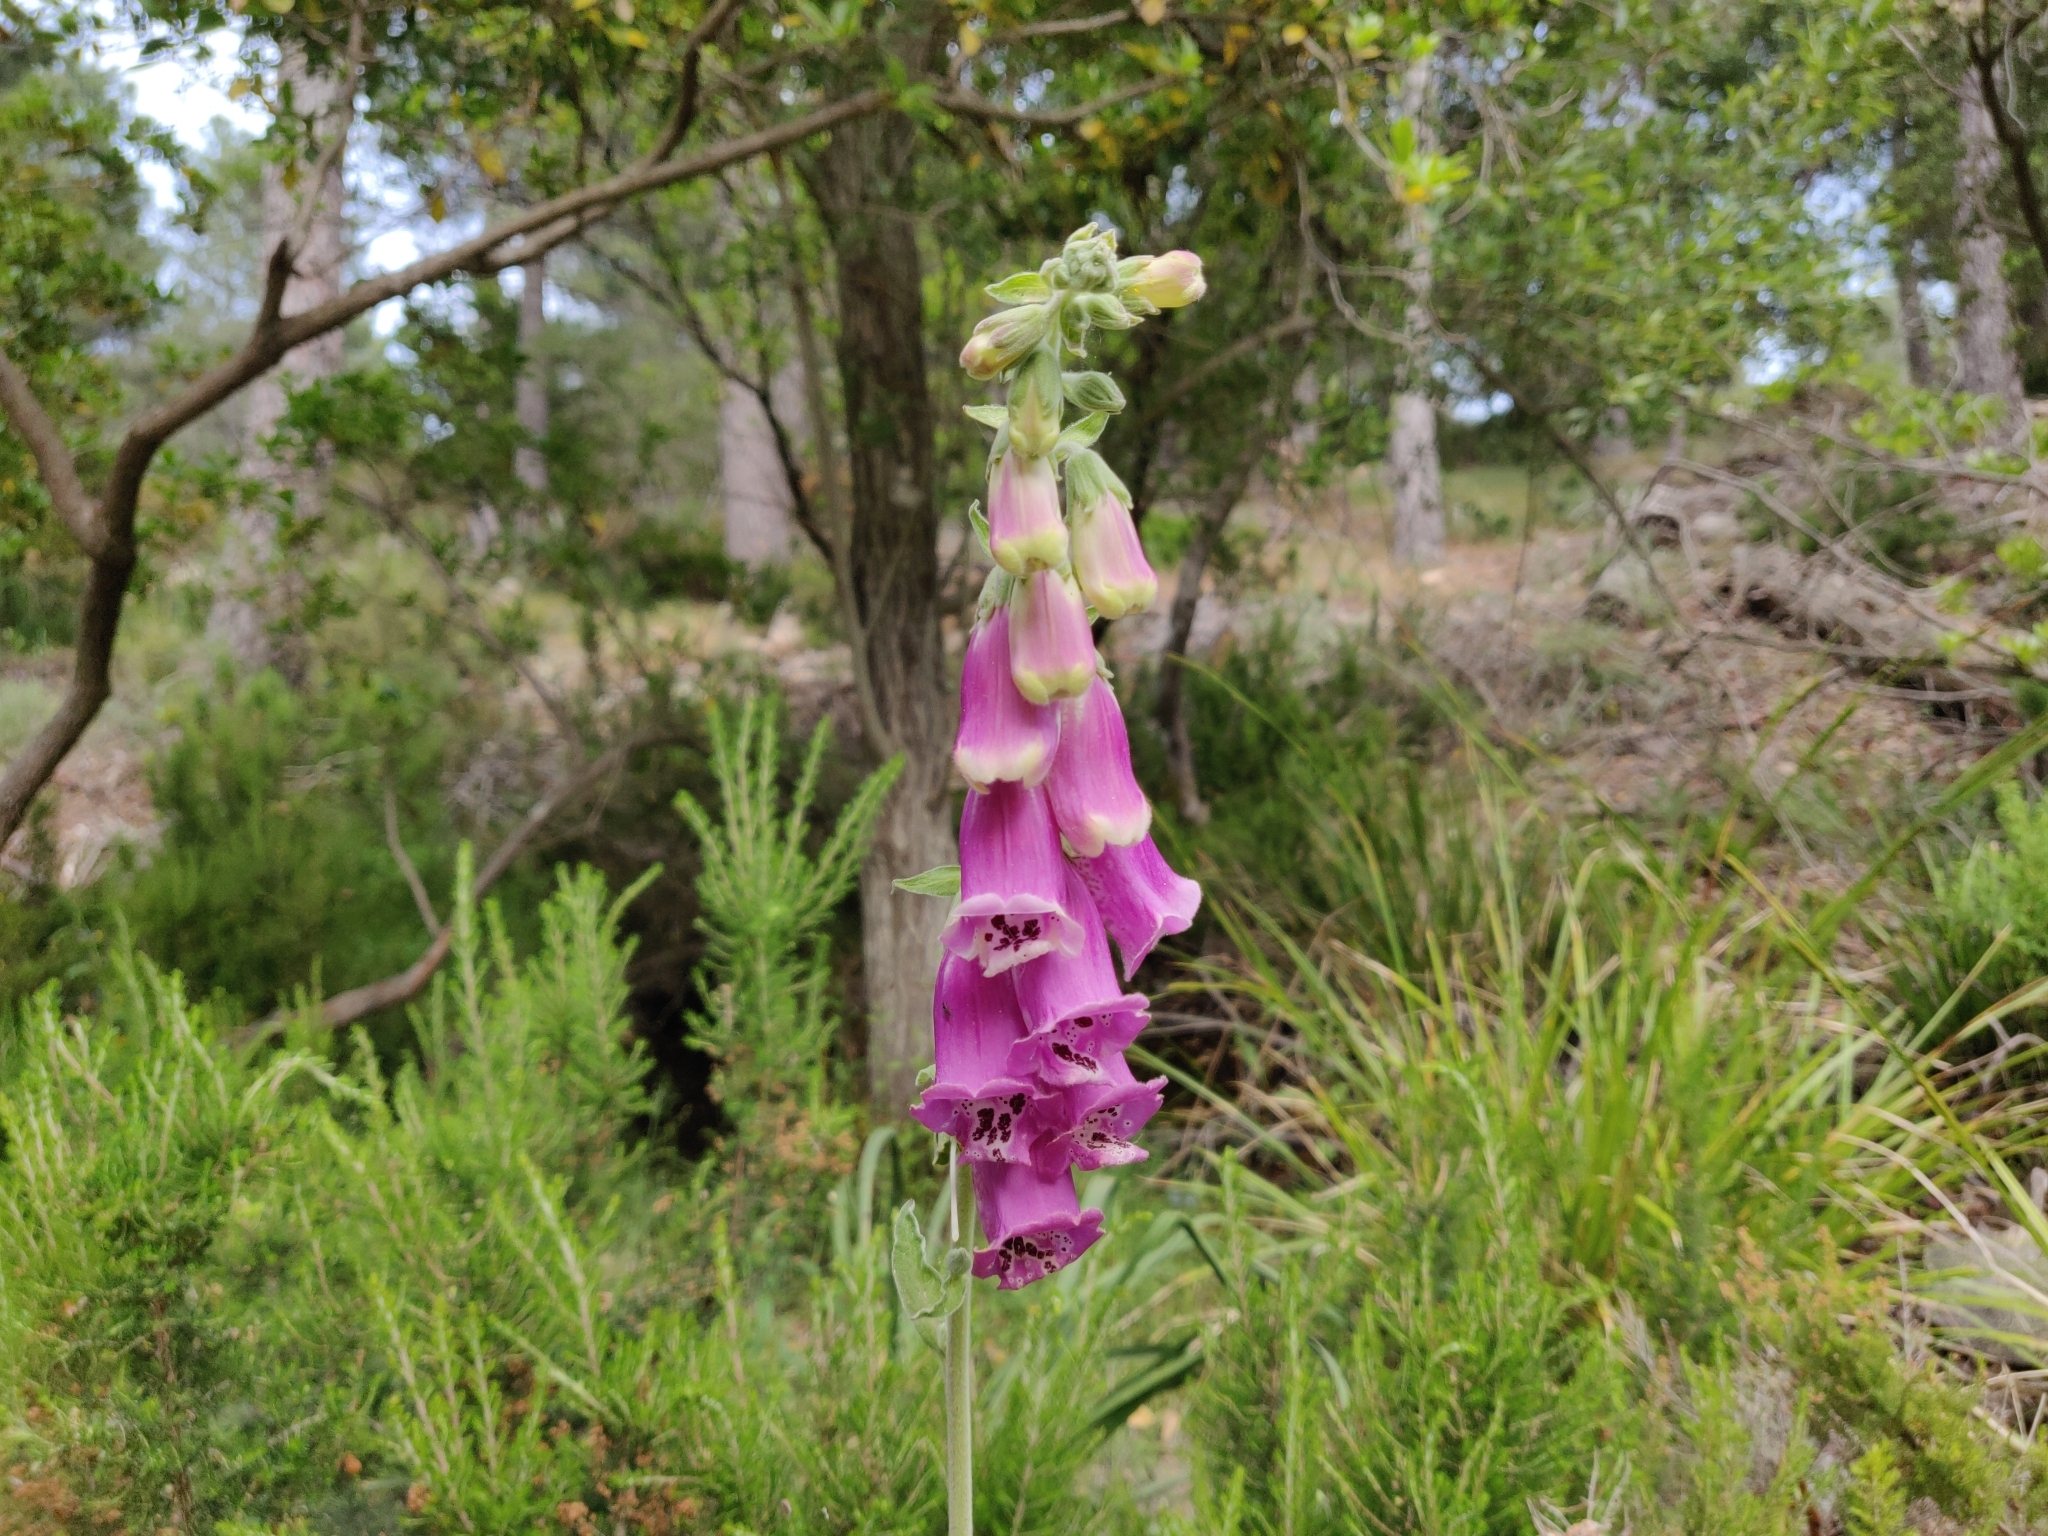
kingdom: Plantae
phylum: Tracheophyta
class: Magnoliopsida
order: Lamiales
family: Plantaginaceae
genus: Digitalis
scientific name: Digitalis purpurea
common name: Foxglove
